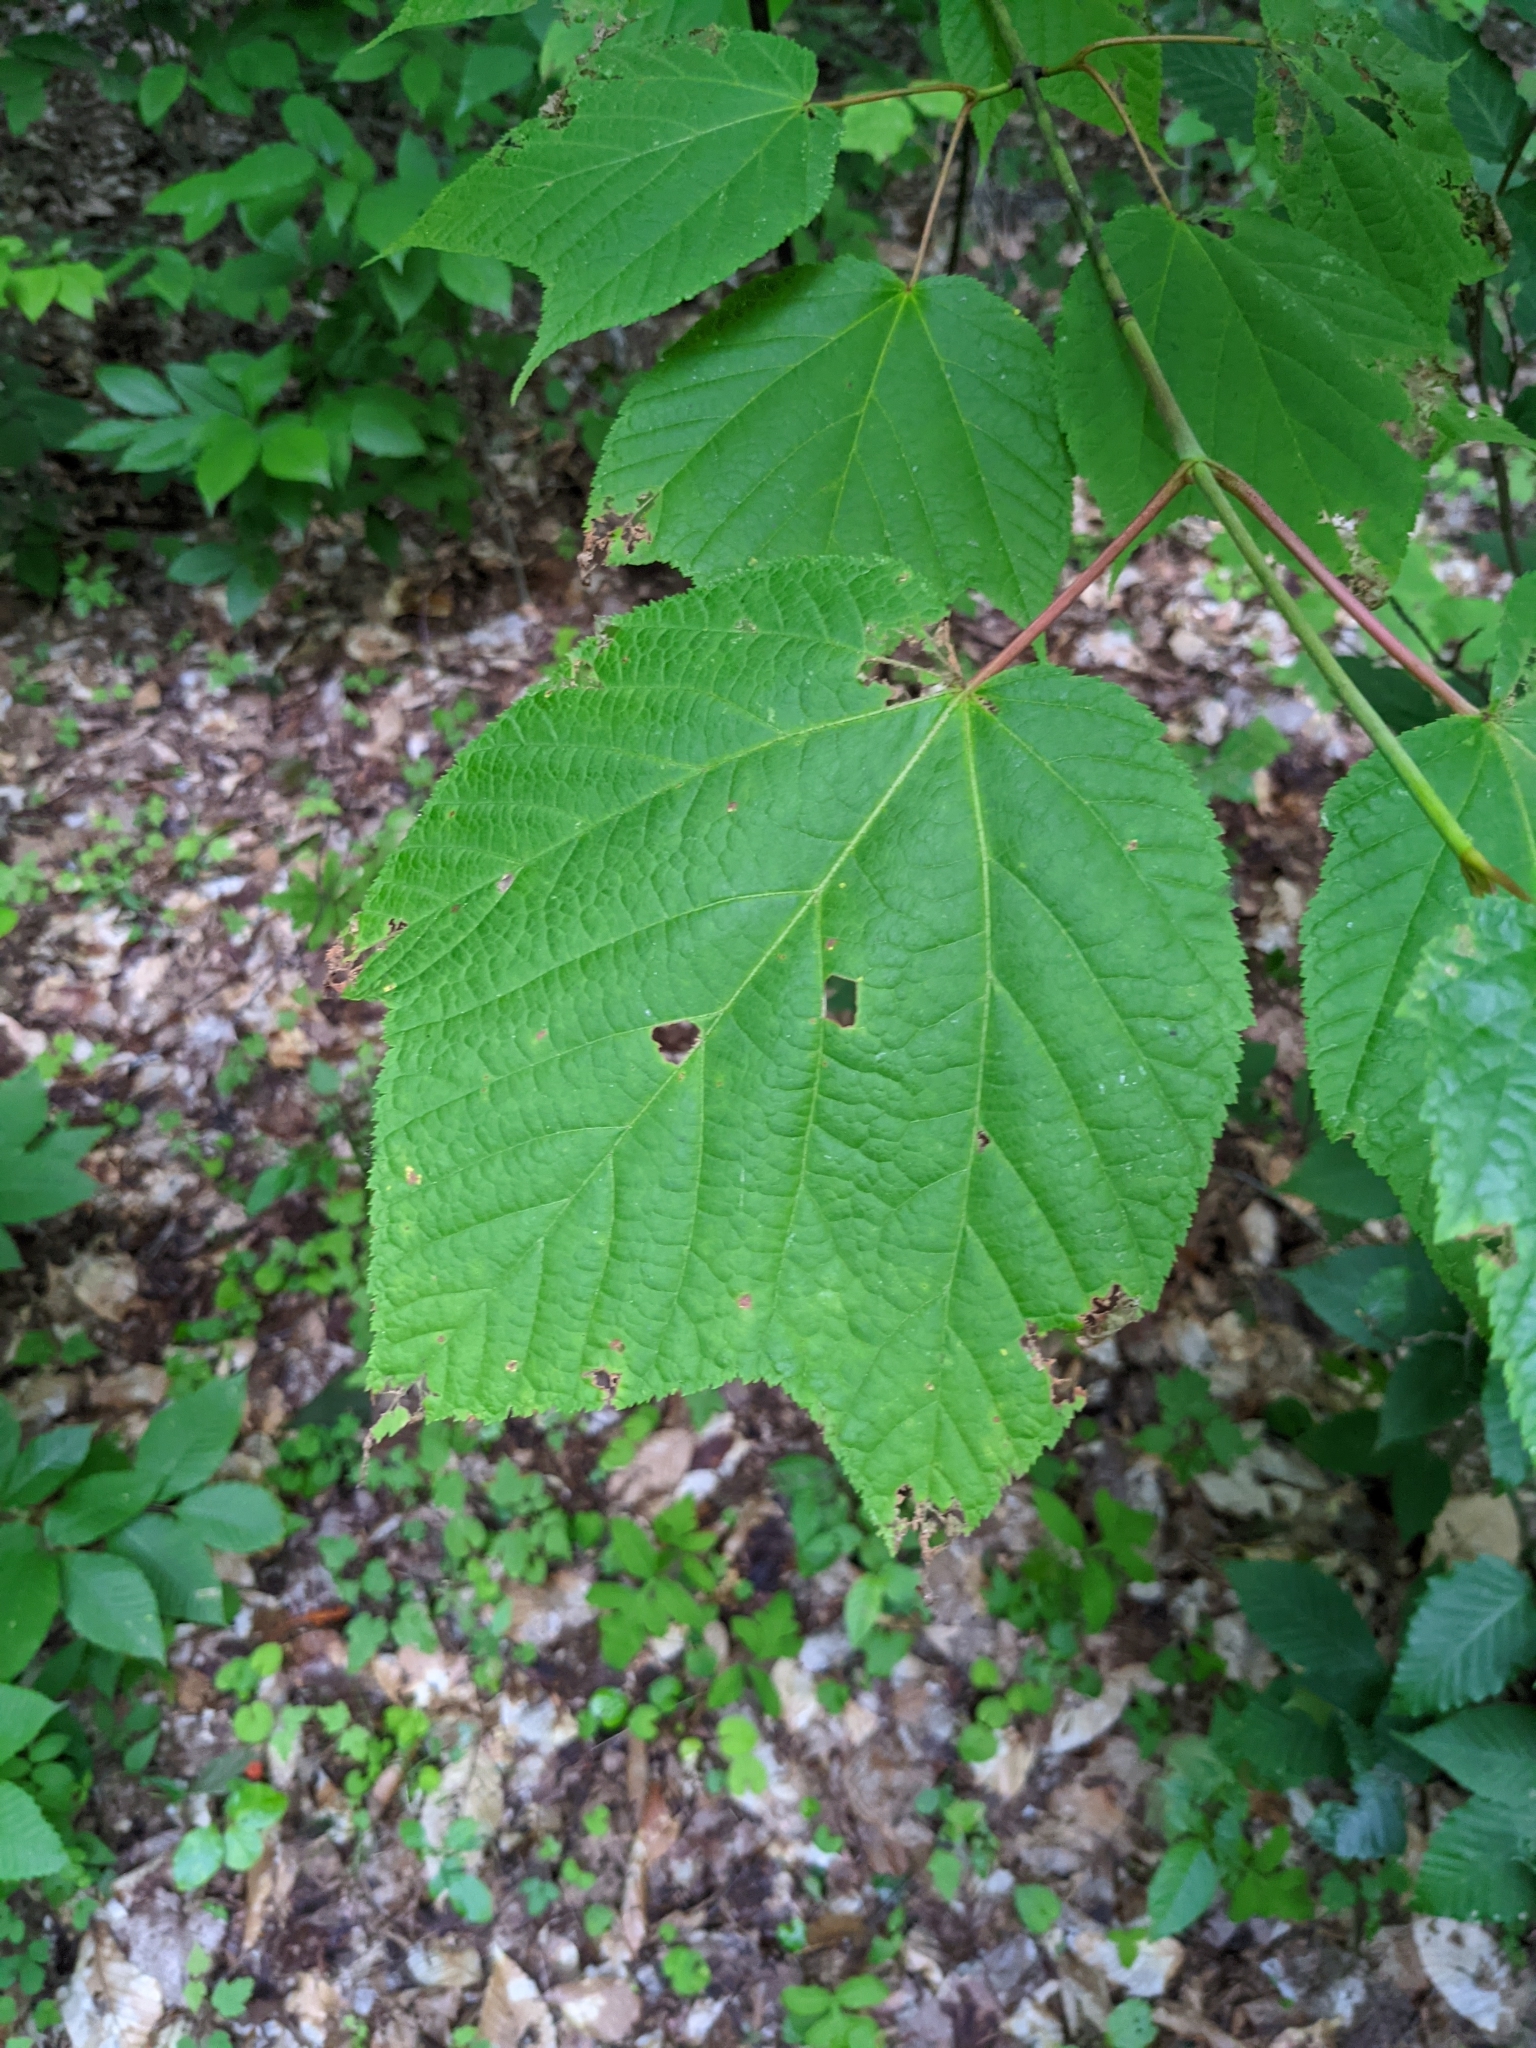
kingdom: Plantae
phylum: Tracheophyta
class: Magnoliopsida
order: Sapindales
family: Sapindaceae
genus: Acer
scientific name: Acer pensylvanicum
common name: Moosewood
